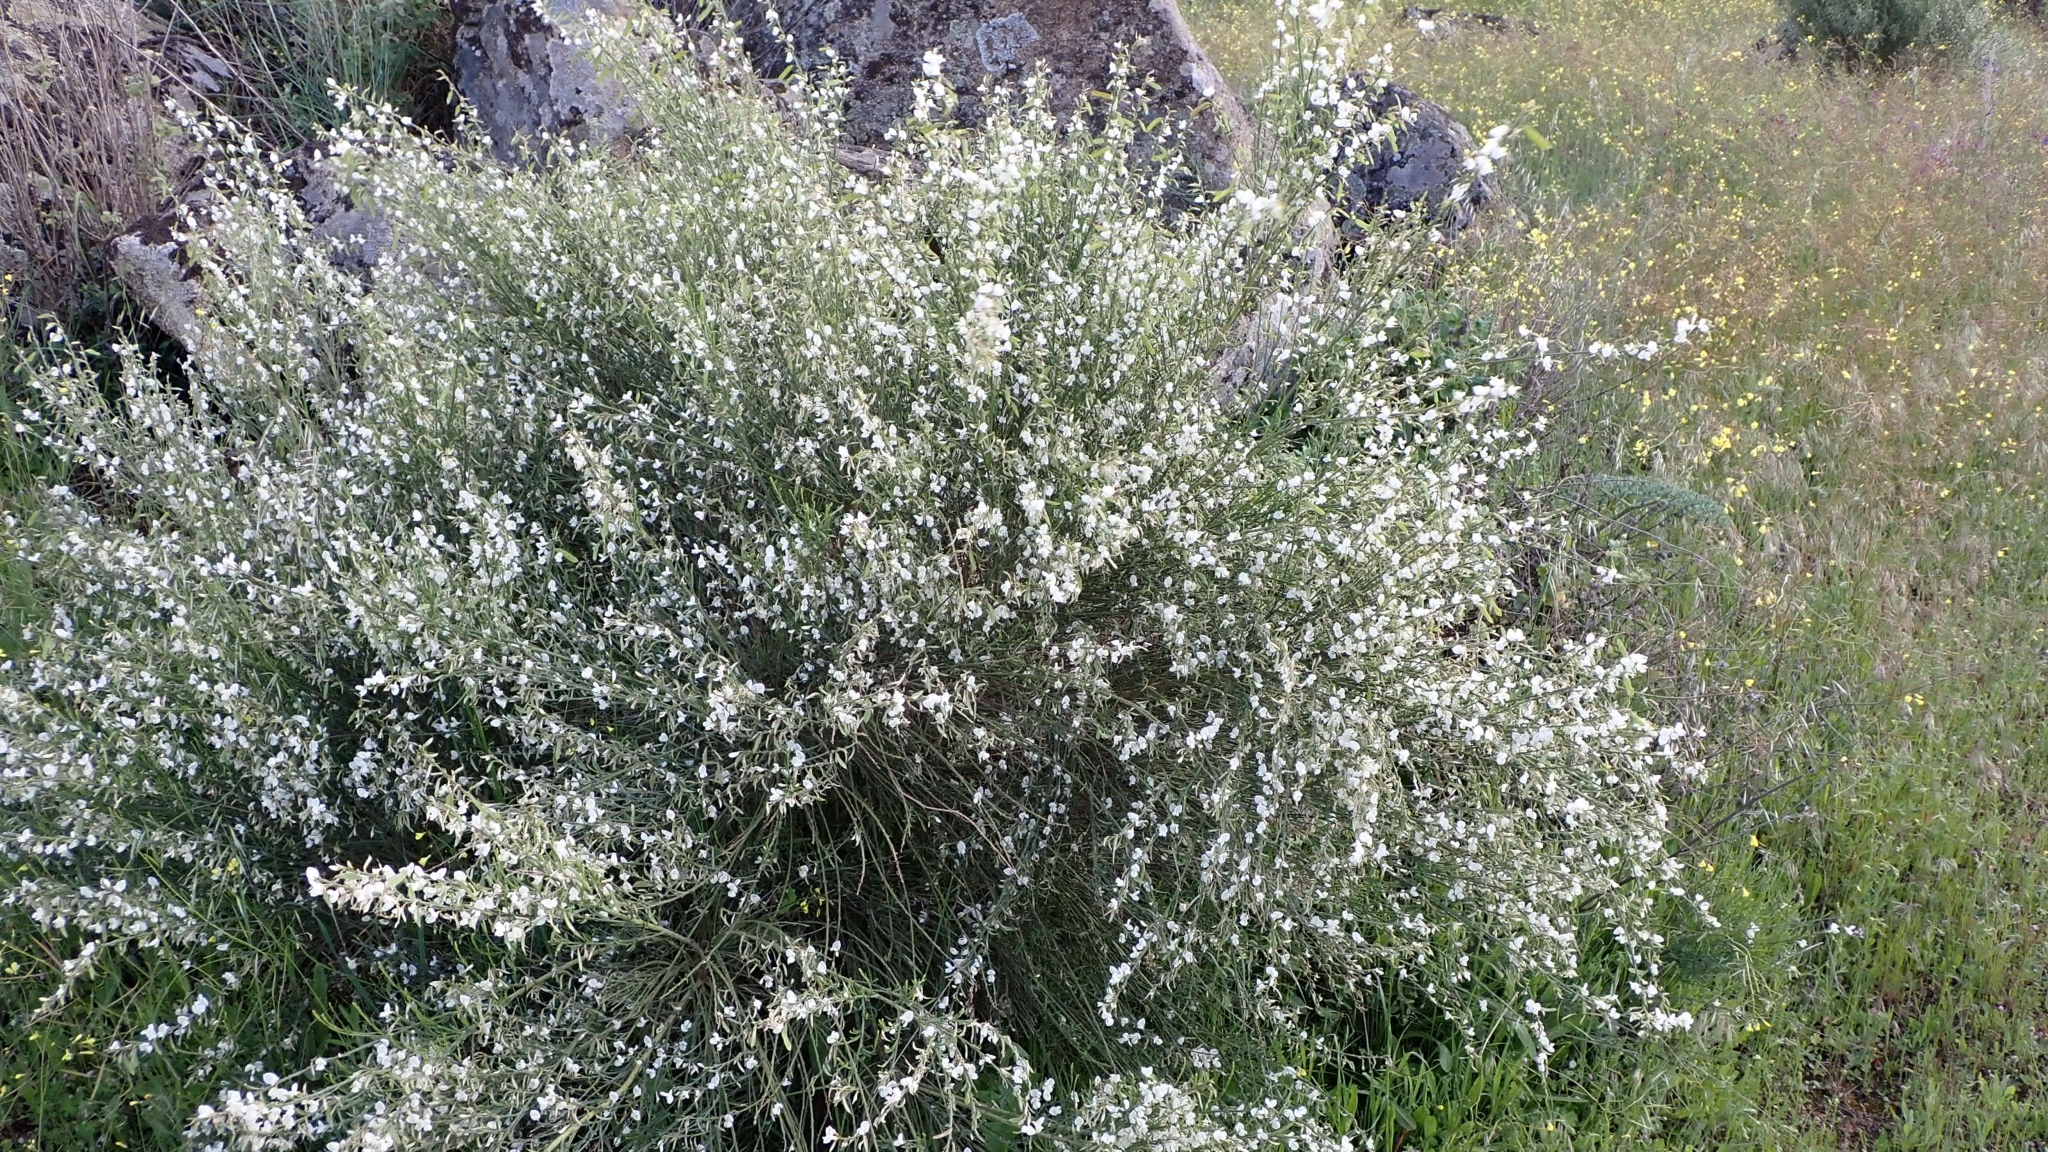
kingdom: Plantae
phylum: Tracheophyta
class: Magnoliopsida
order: Fabales
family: Fabaceae
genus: Cytisus
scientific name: Cytisus multiflorus
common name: White broom
